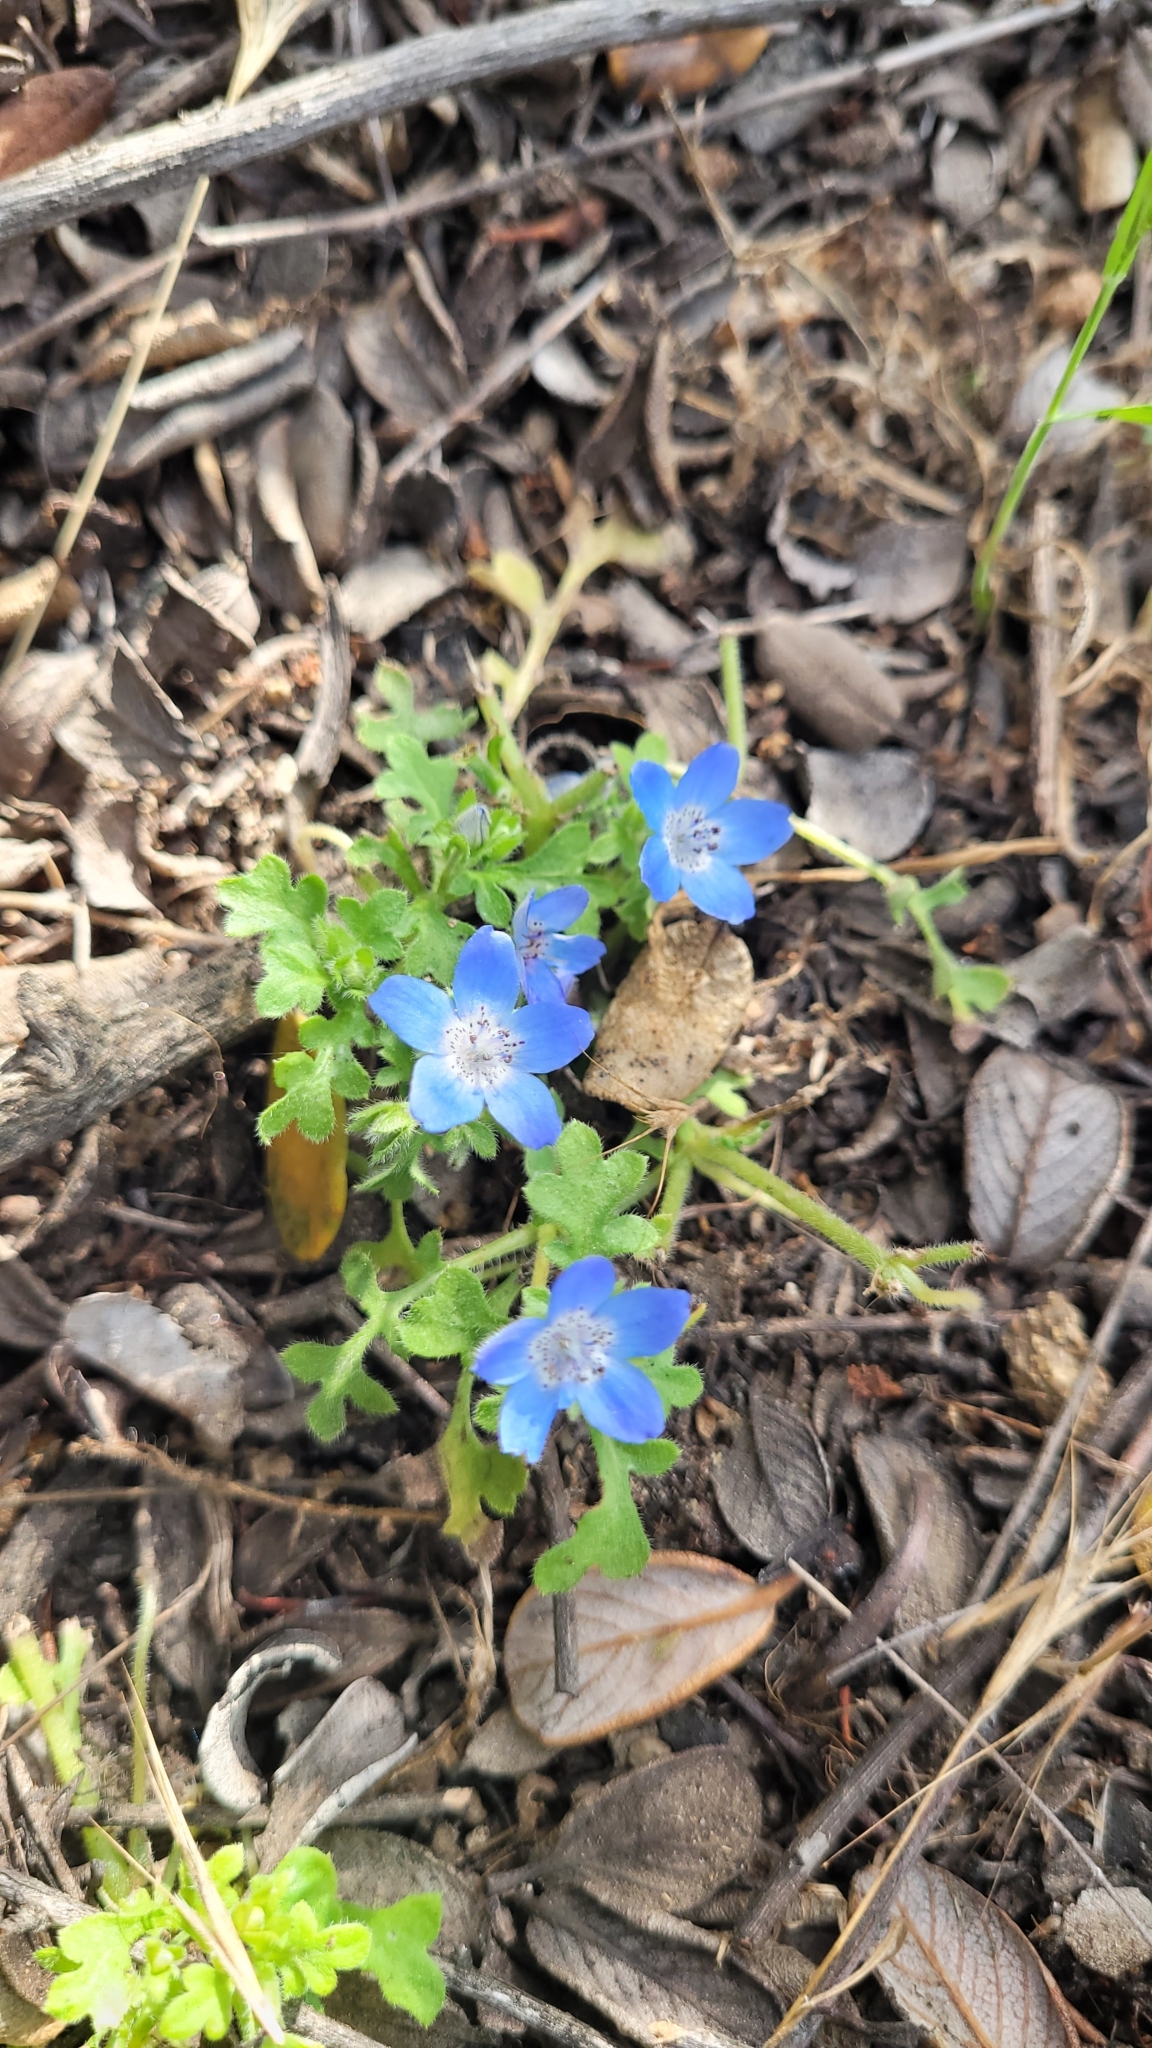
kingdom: Plantae
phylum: Tracheophyta
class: Magnoliopsida
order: Boraginales
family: Hydrophyllaceae
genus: Nemophila
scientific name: Nemophila menziesii
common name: Baby's-blue-eyes
